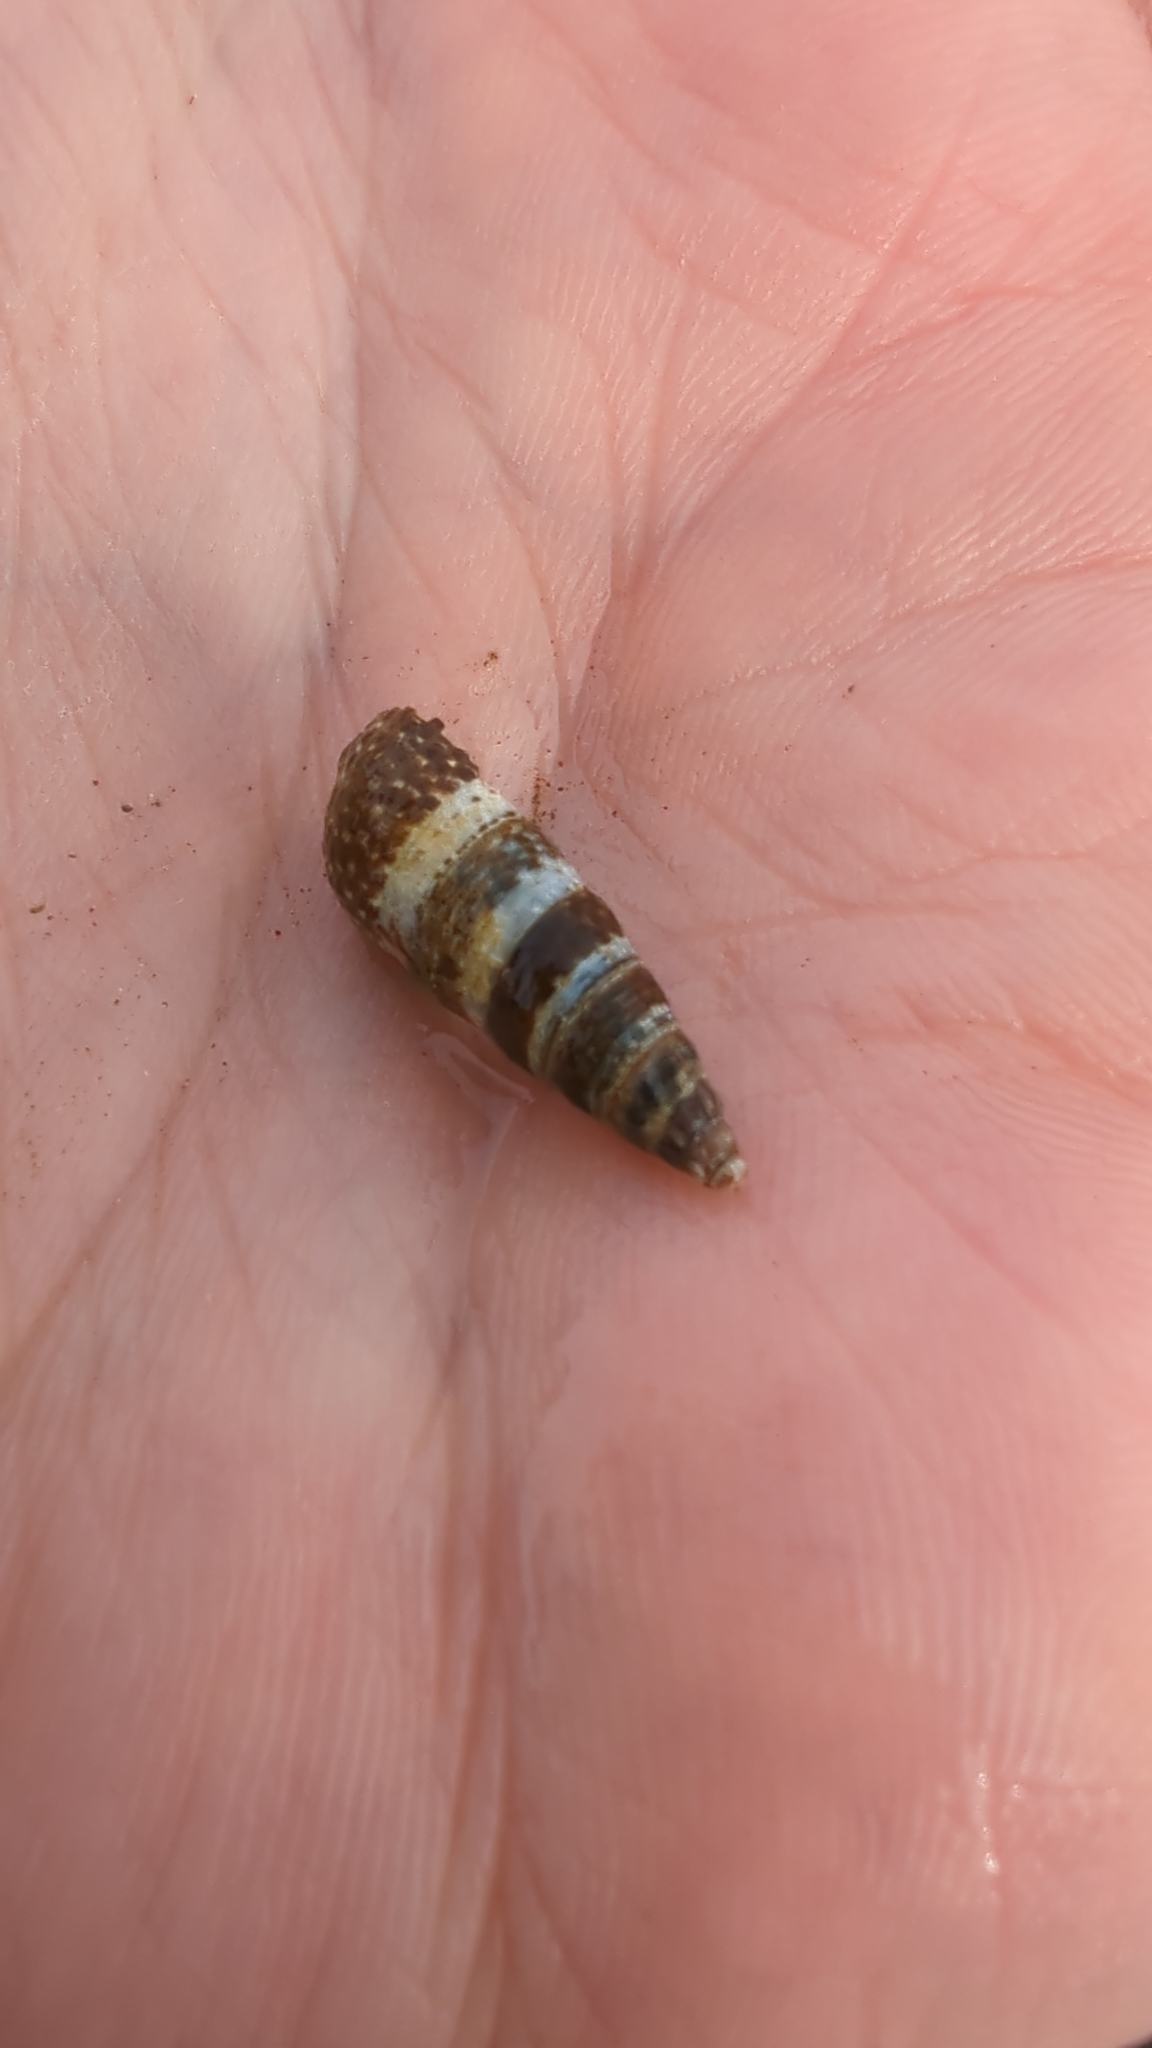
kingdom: Animalia
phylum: Mollusca
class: Gastropoda
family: Batillariidae
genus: Batillaria
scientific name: Batillaria attramentaria
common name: Japanese false cerith
